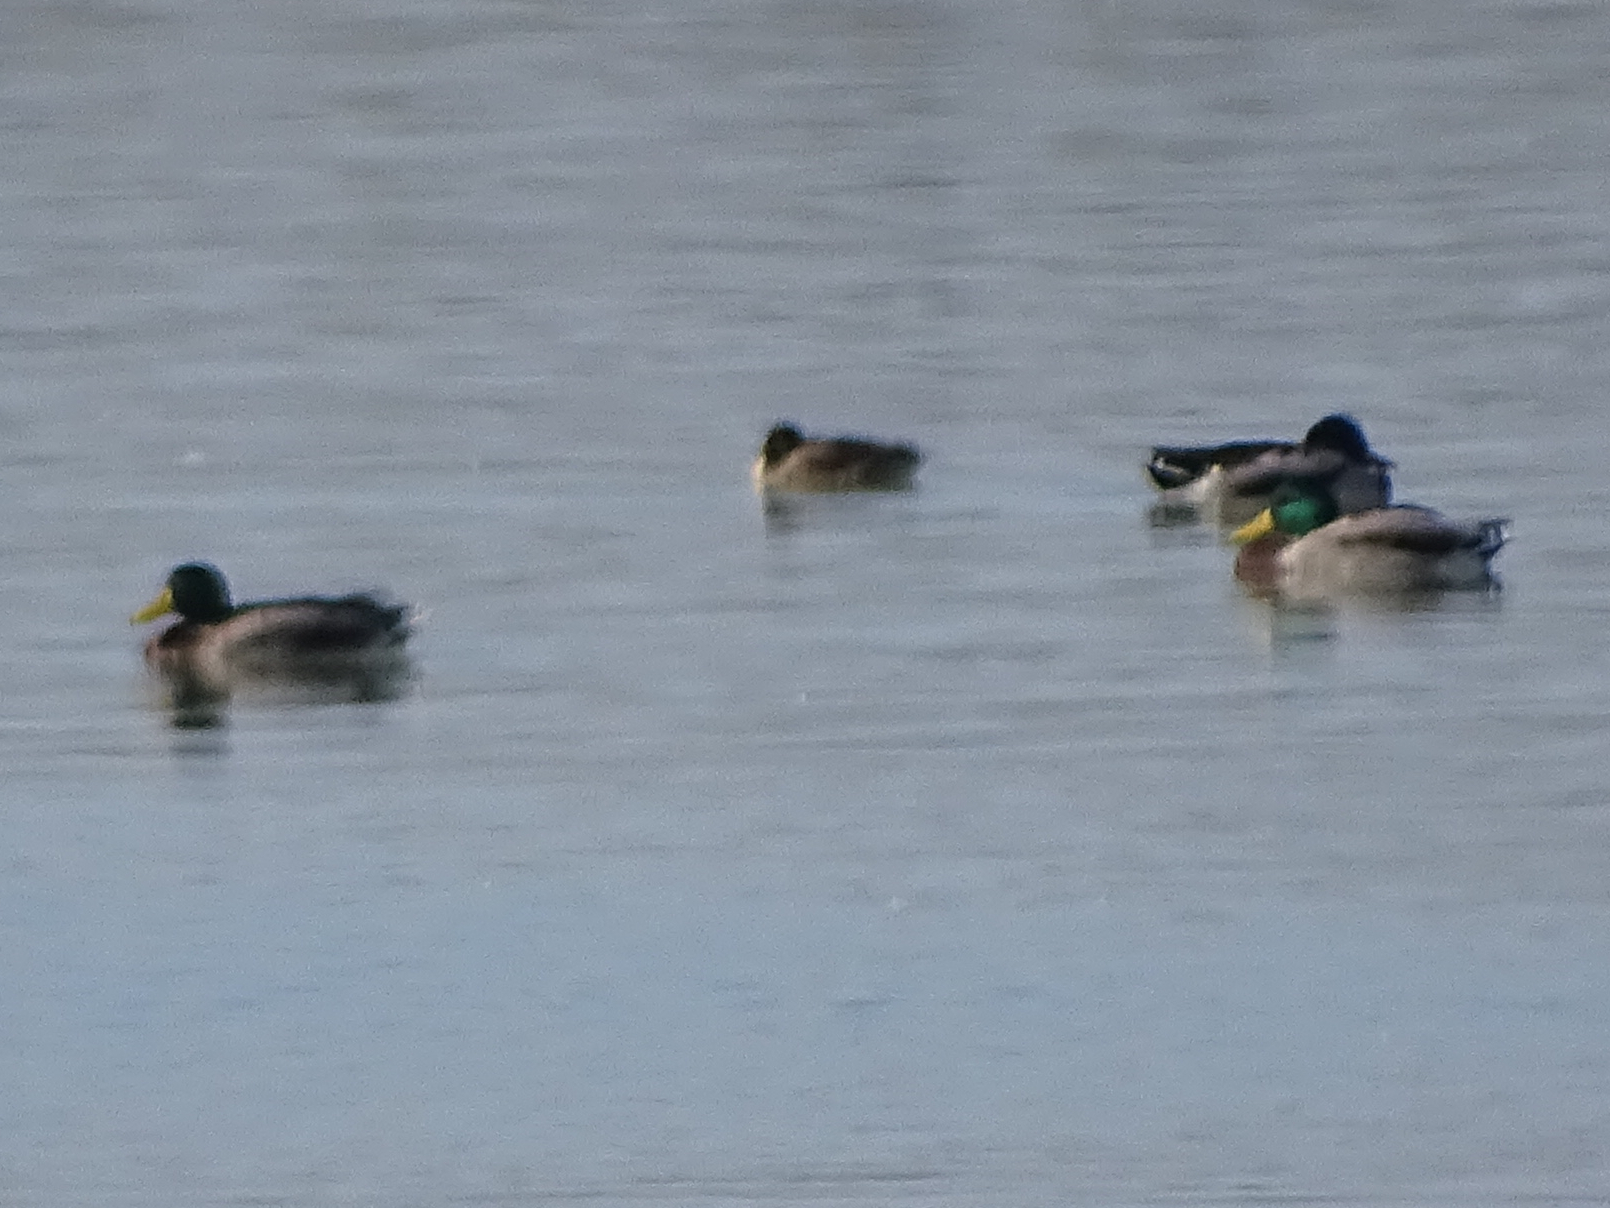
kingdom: Animalia
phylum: Chordata
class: Aves
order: Anseriformes
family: Anatidae
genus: Anas
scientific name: Anas platyrhynchos
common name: Mallard
